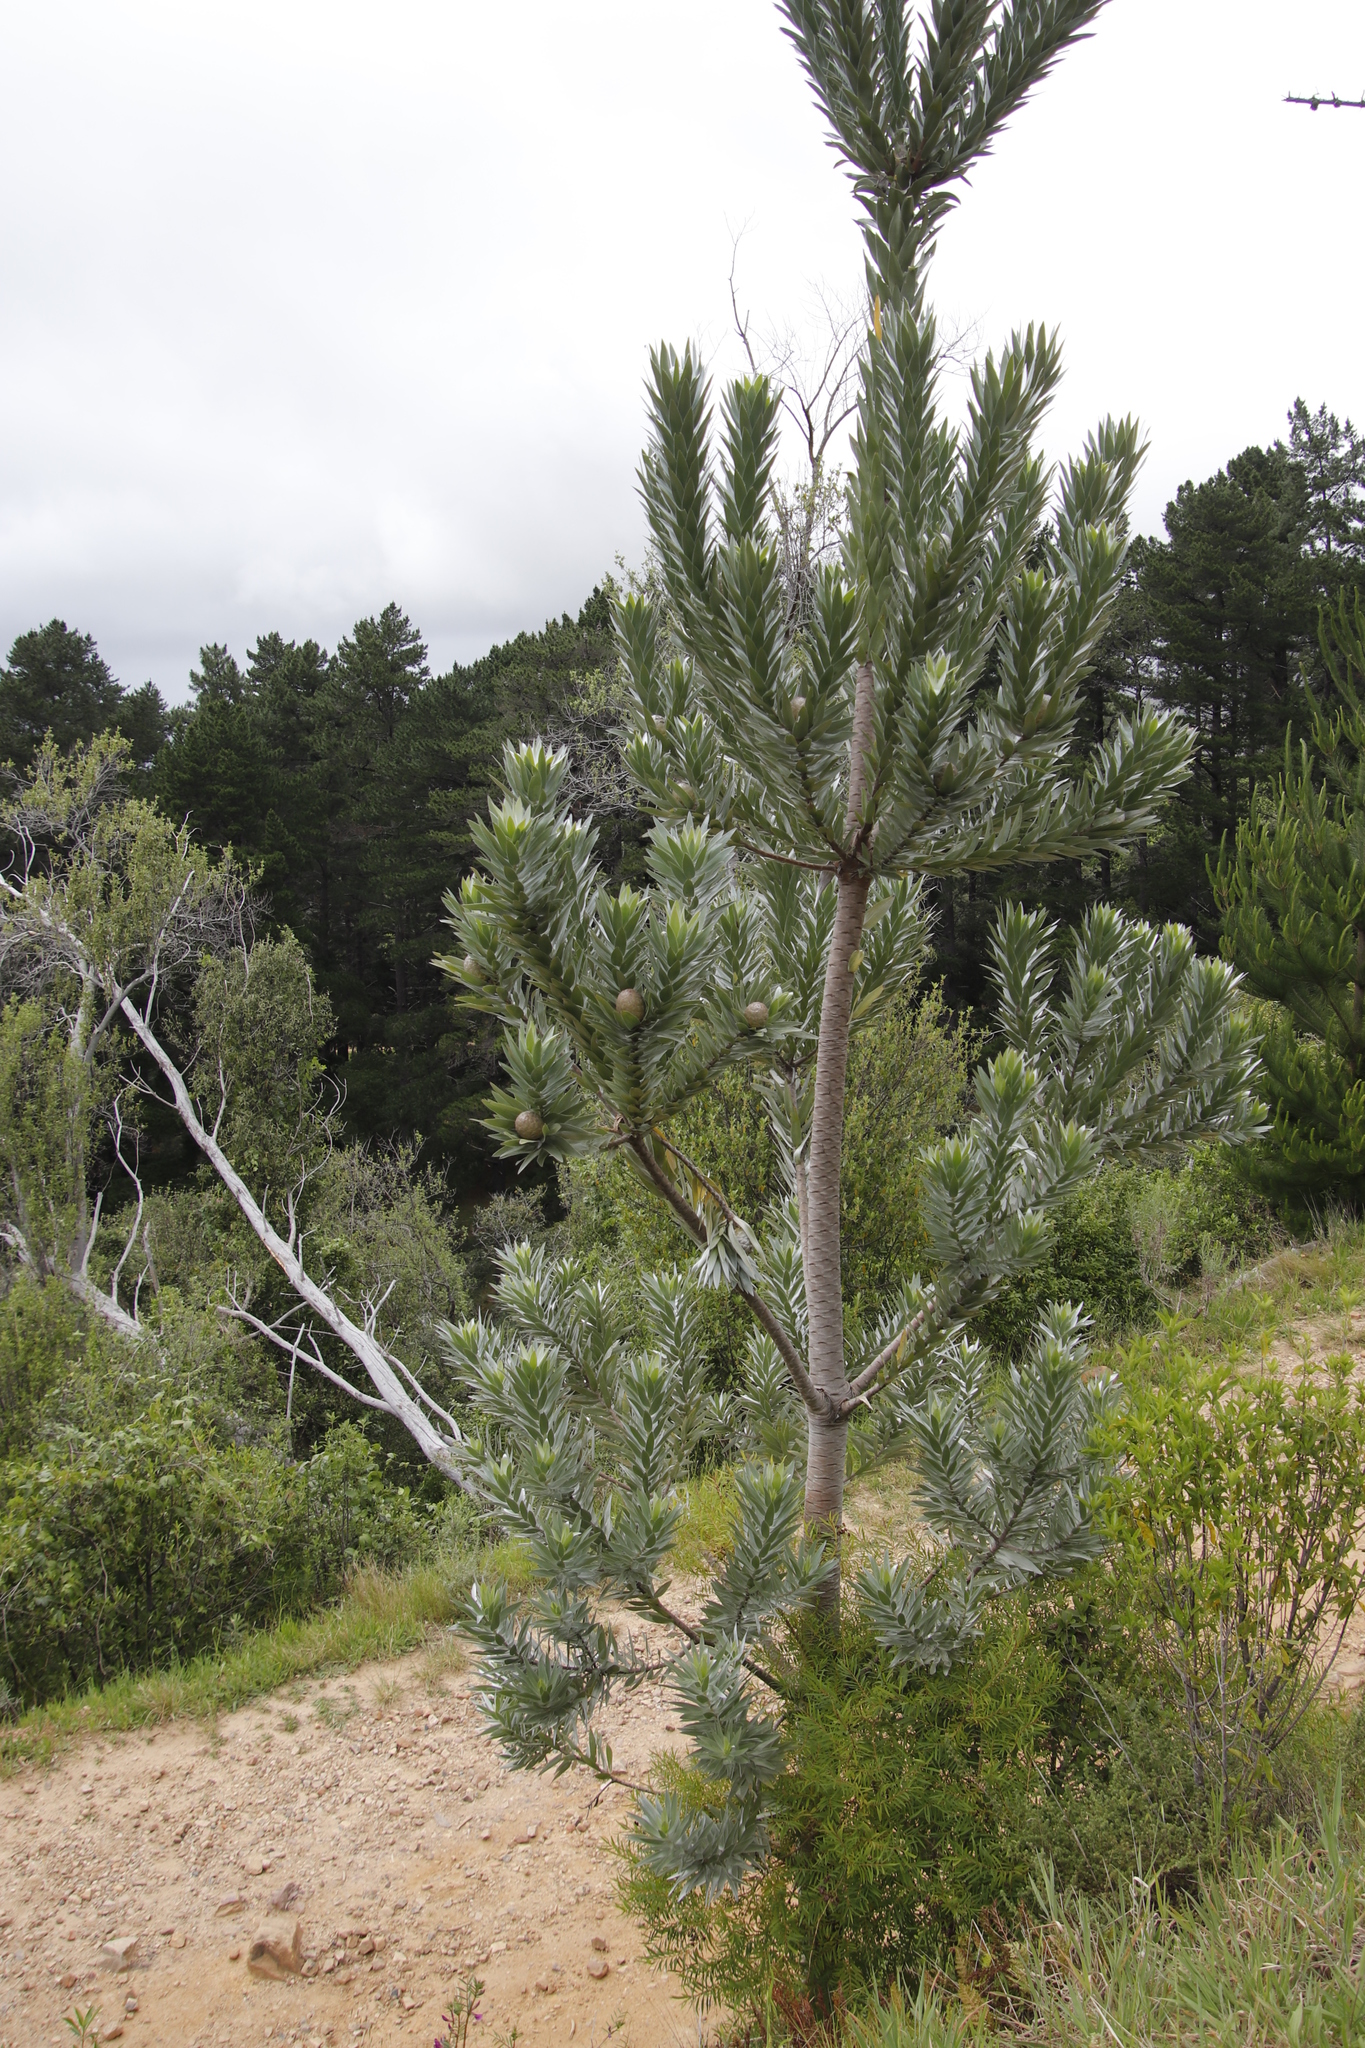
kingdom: Plantae
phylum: Tracheophyta
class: Magnoliopsida
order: Proteales
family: Proteaceae
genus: Leucadendron
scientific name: Leucadendron argenteum
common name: Cape silver tree
